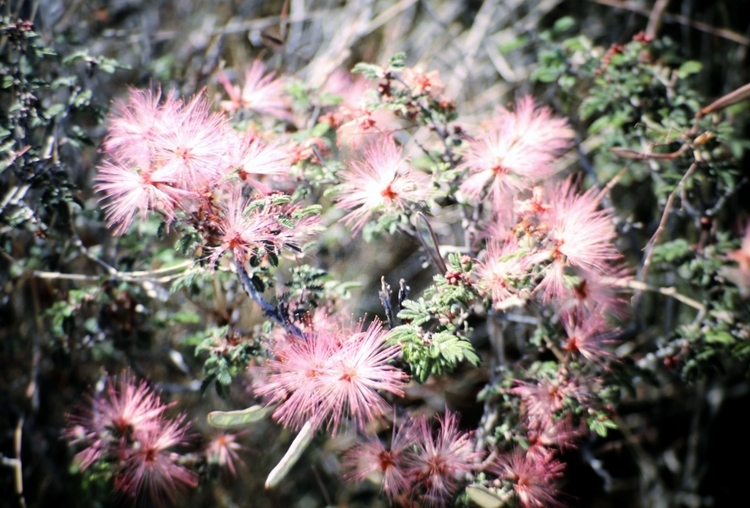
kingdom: Plantae
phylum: Tracheophyta
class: Magnoliopsida
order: Fabales
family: Fabaceae
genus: Calliandra
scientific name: Calliandra eriophylla
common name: Fairy-duster
